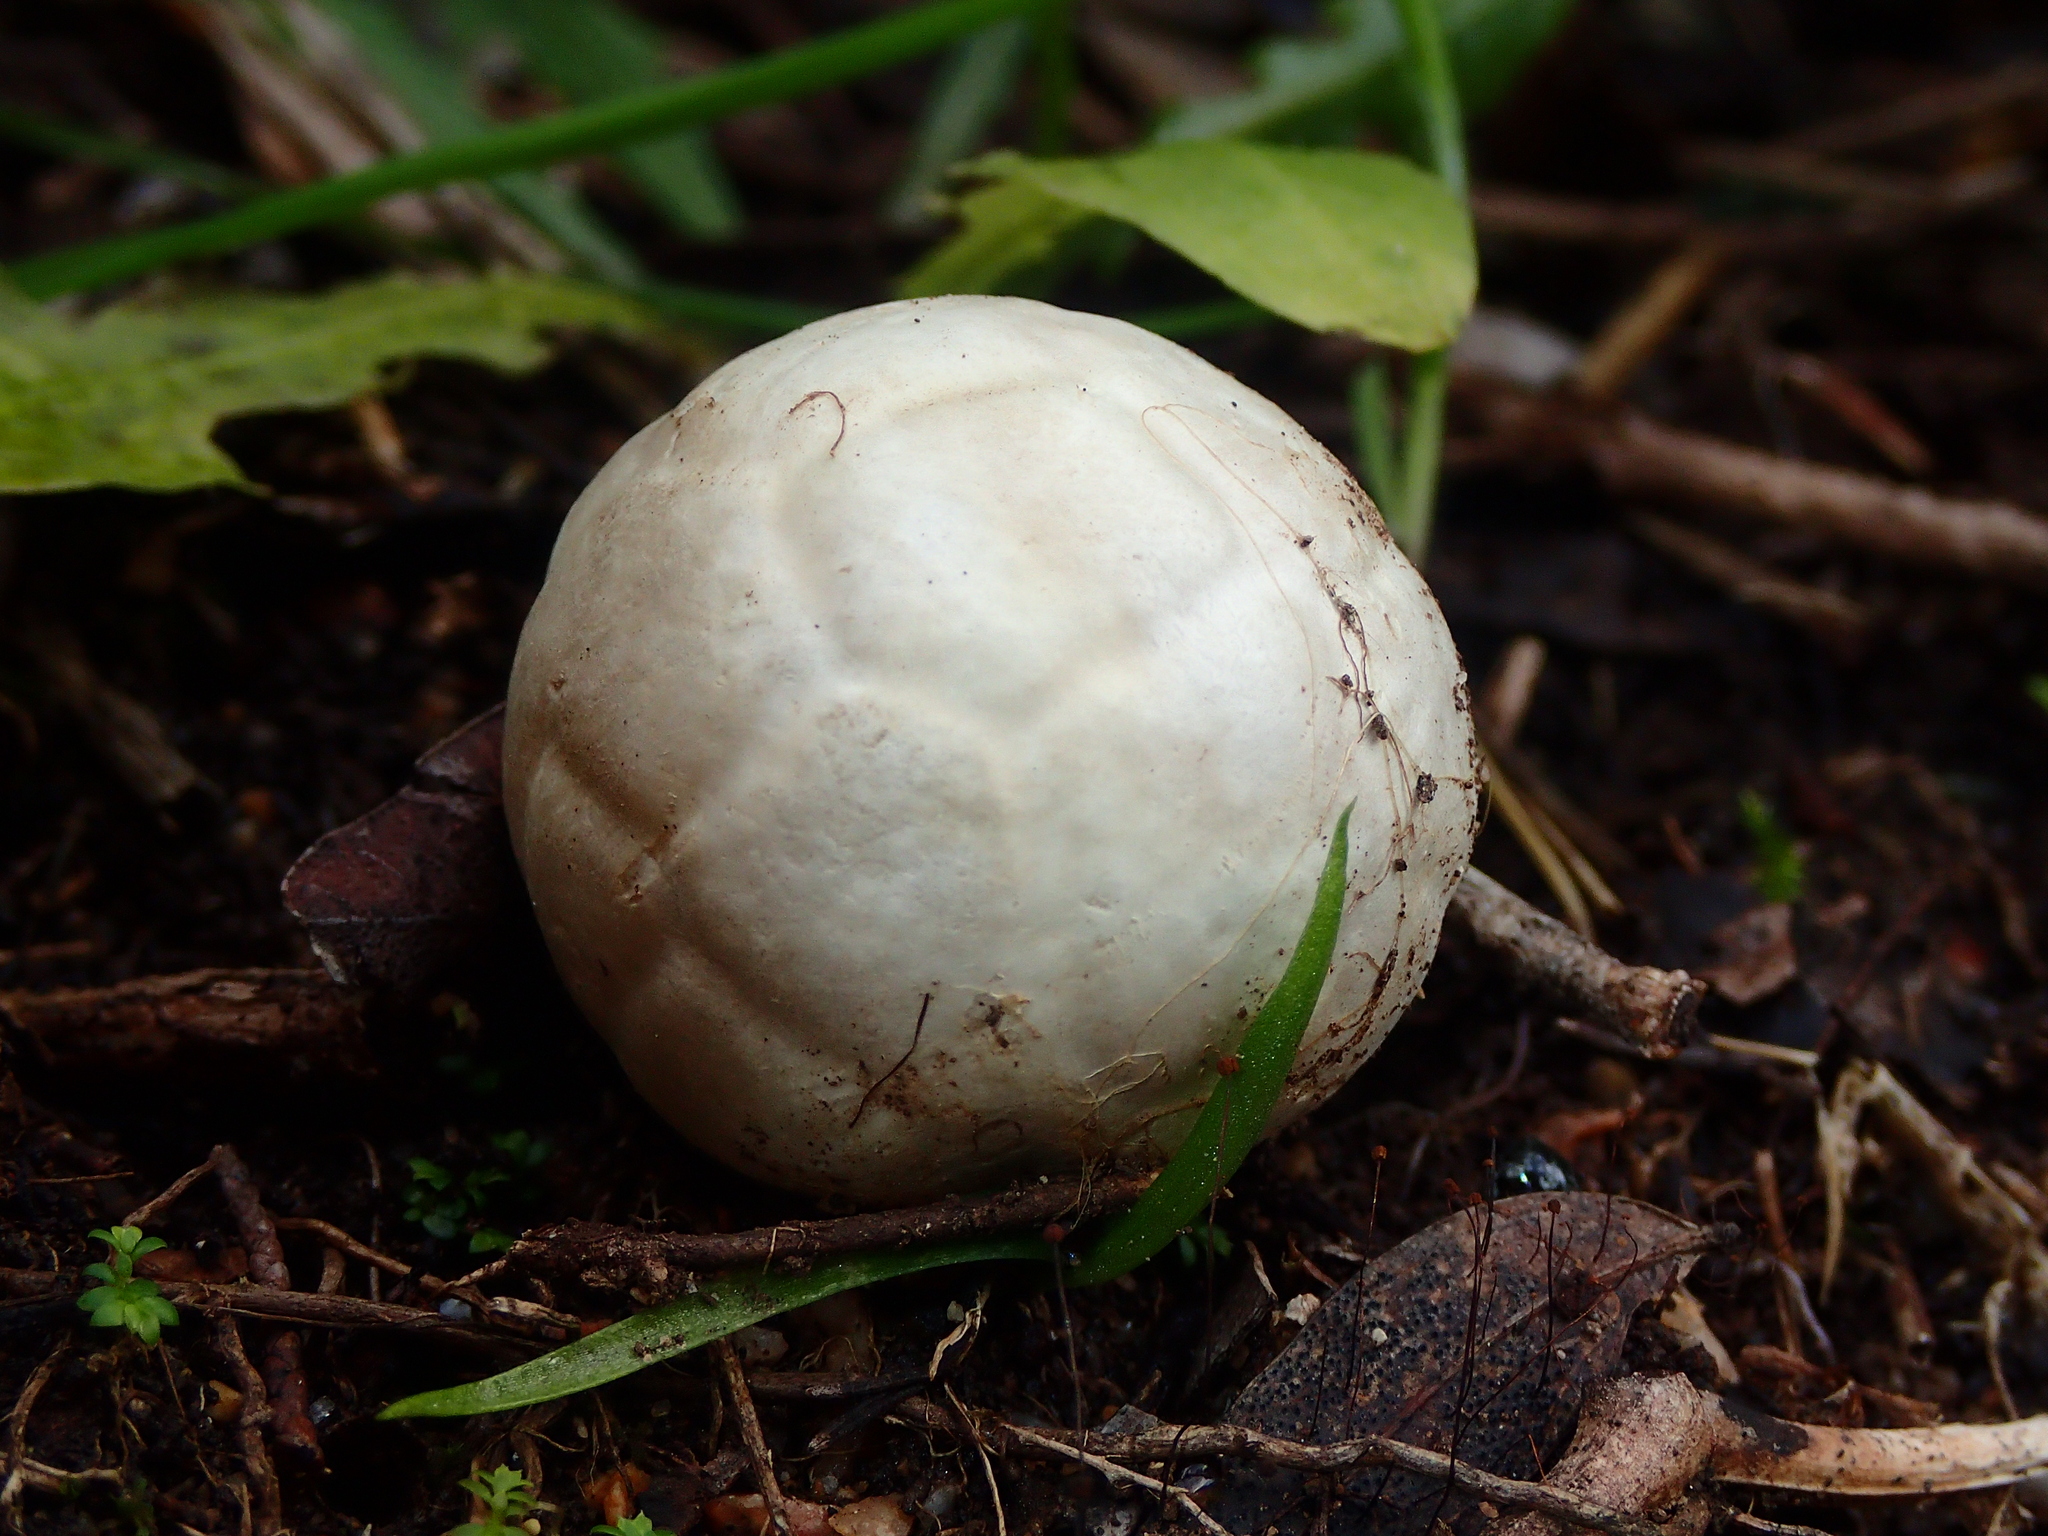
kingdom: Fungi
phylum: Basidiomycota
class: Agaricomycetes
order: Phallales
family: Phallaceae
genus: Clathrus
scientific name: Clathrus ruber
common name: Red cage
